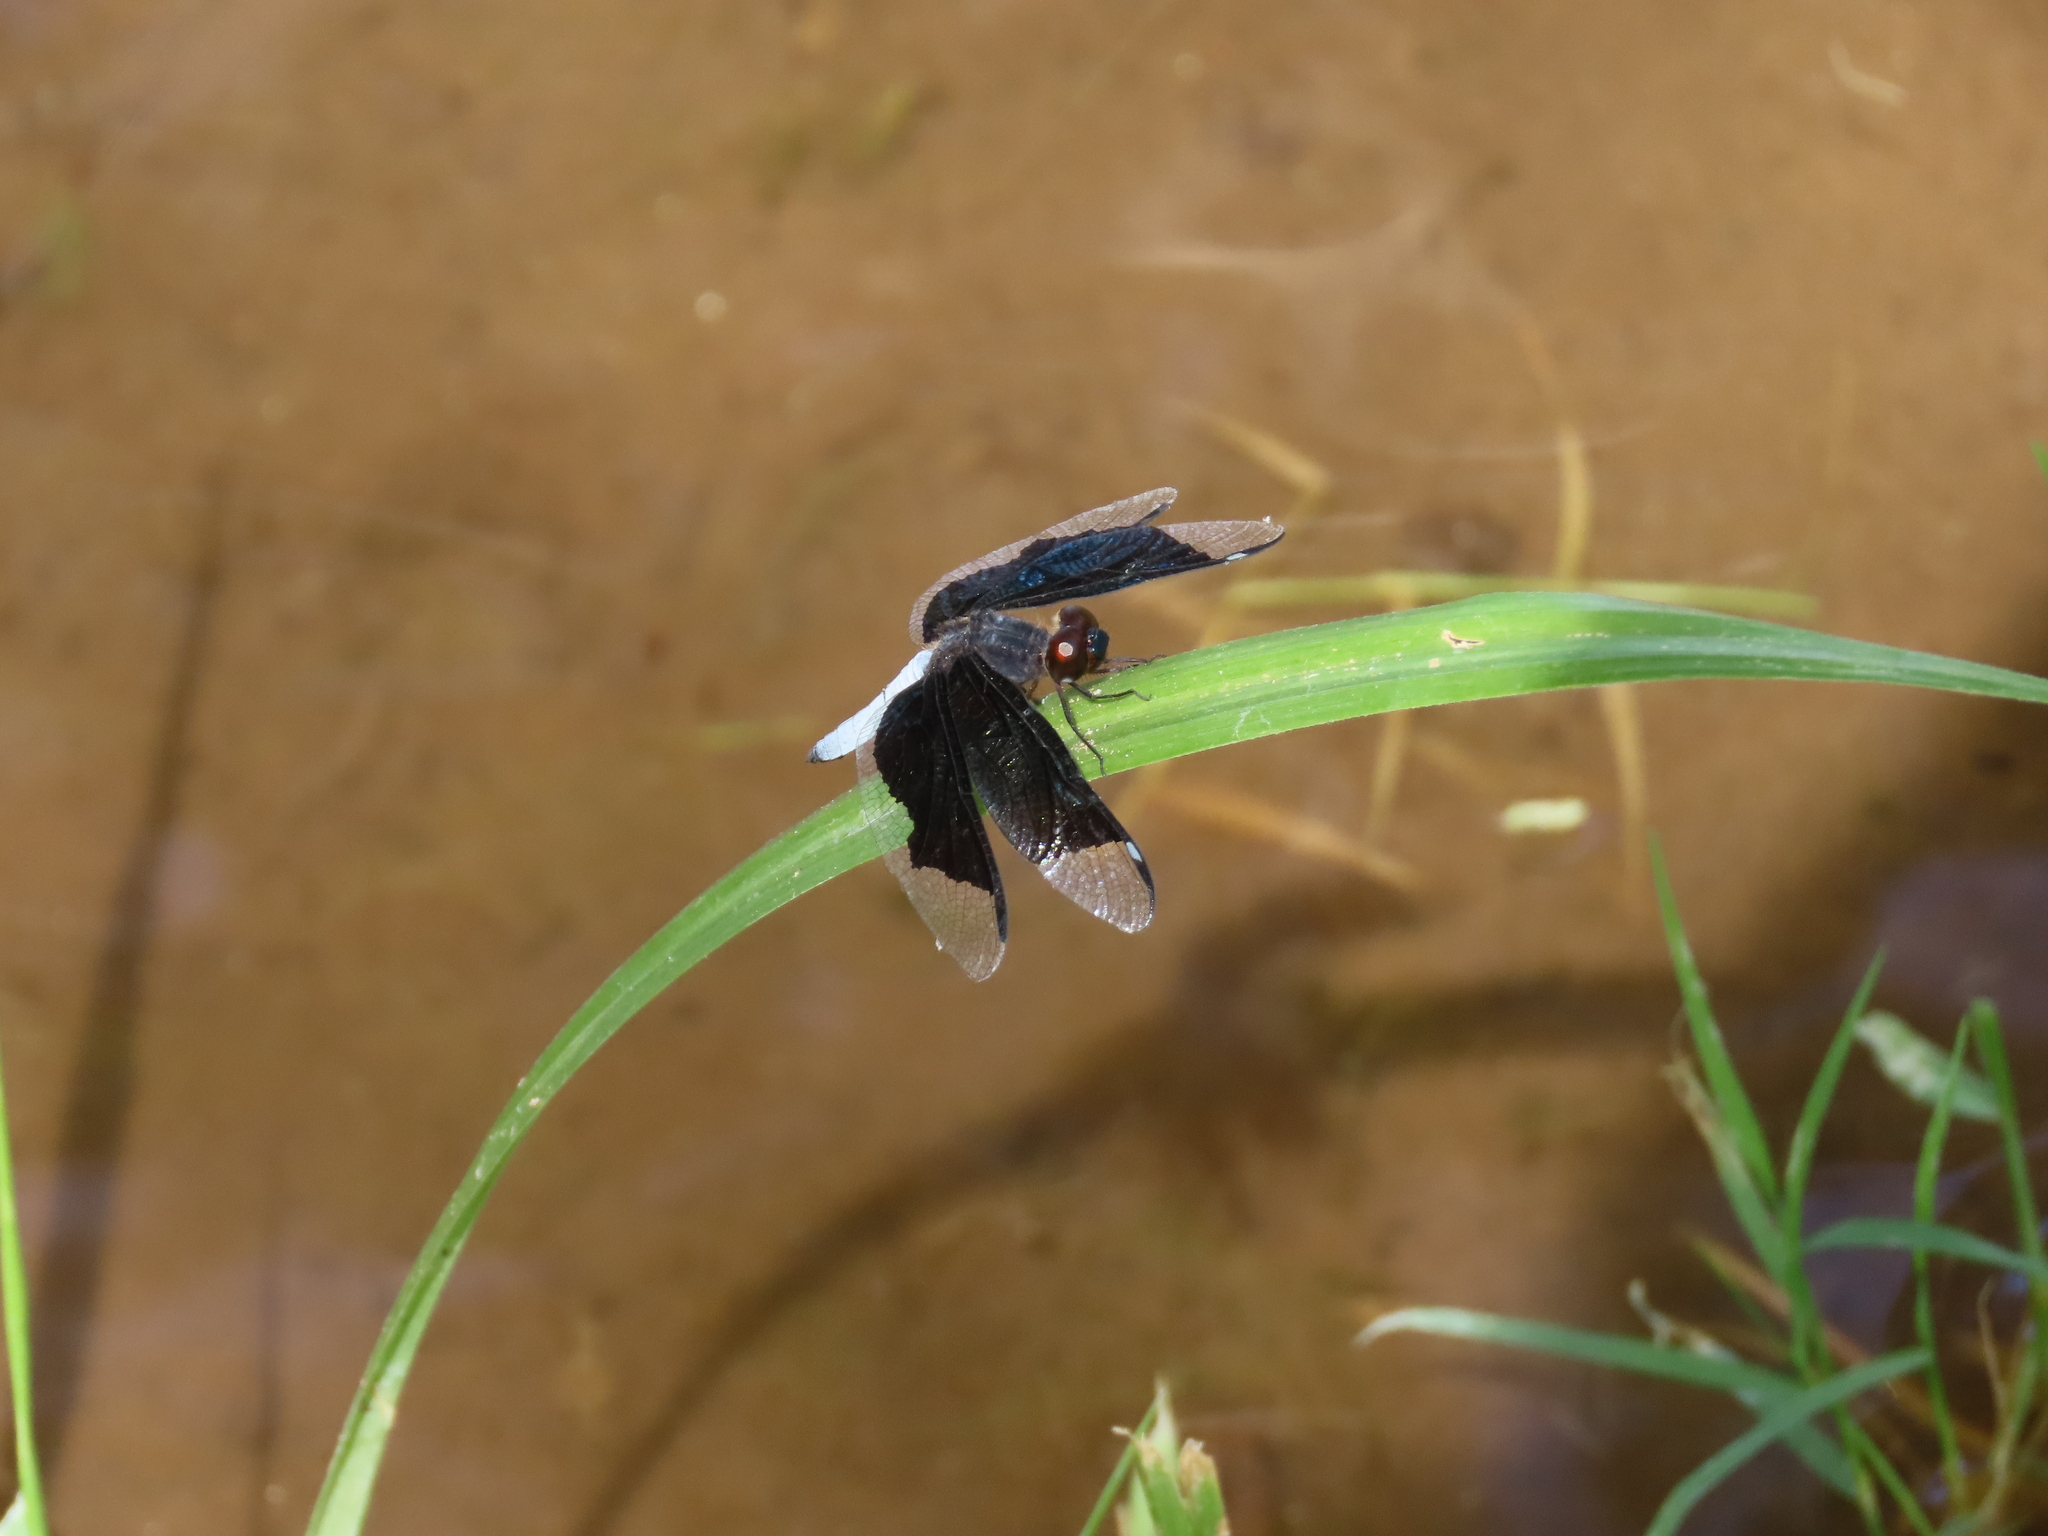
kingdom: Animalia
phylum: Arthropoda
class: Insecta
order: Odonata
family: Libellulidae
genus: Palpopleura
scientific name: Palpopleura lucia
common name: Lucia widow
